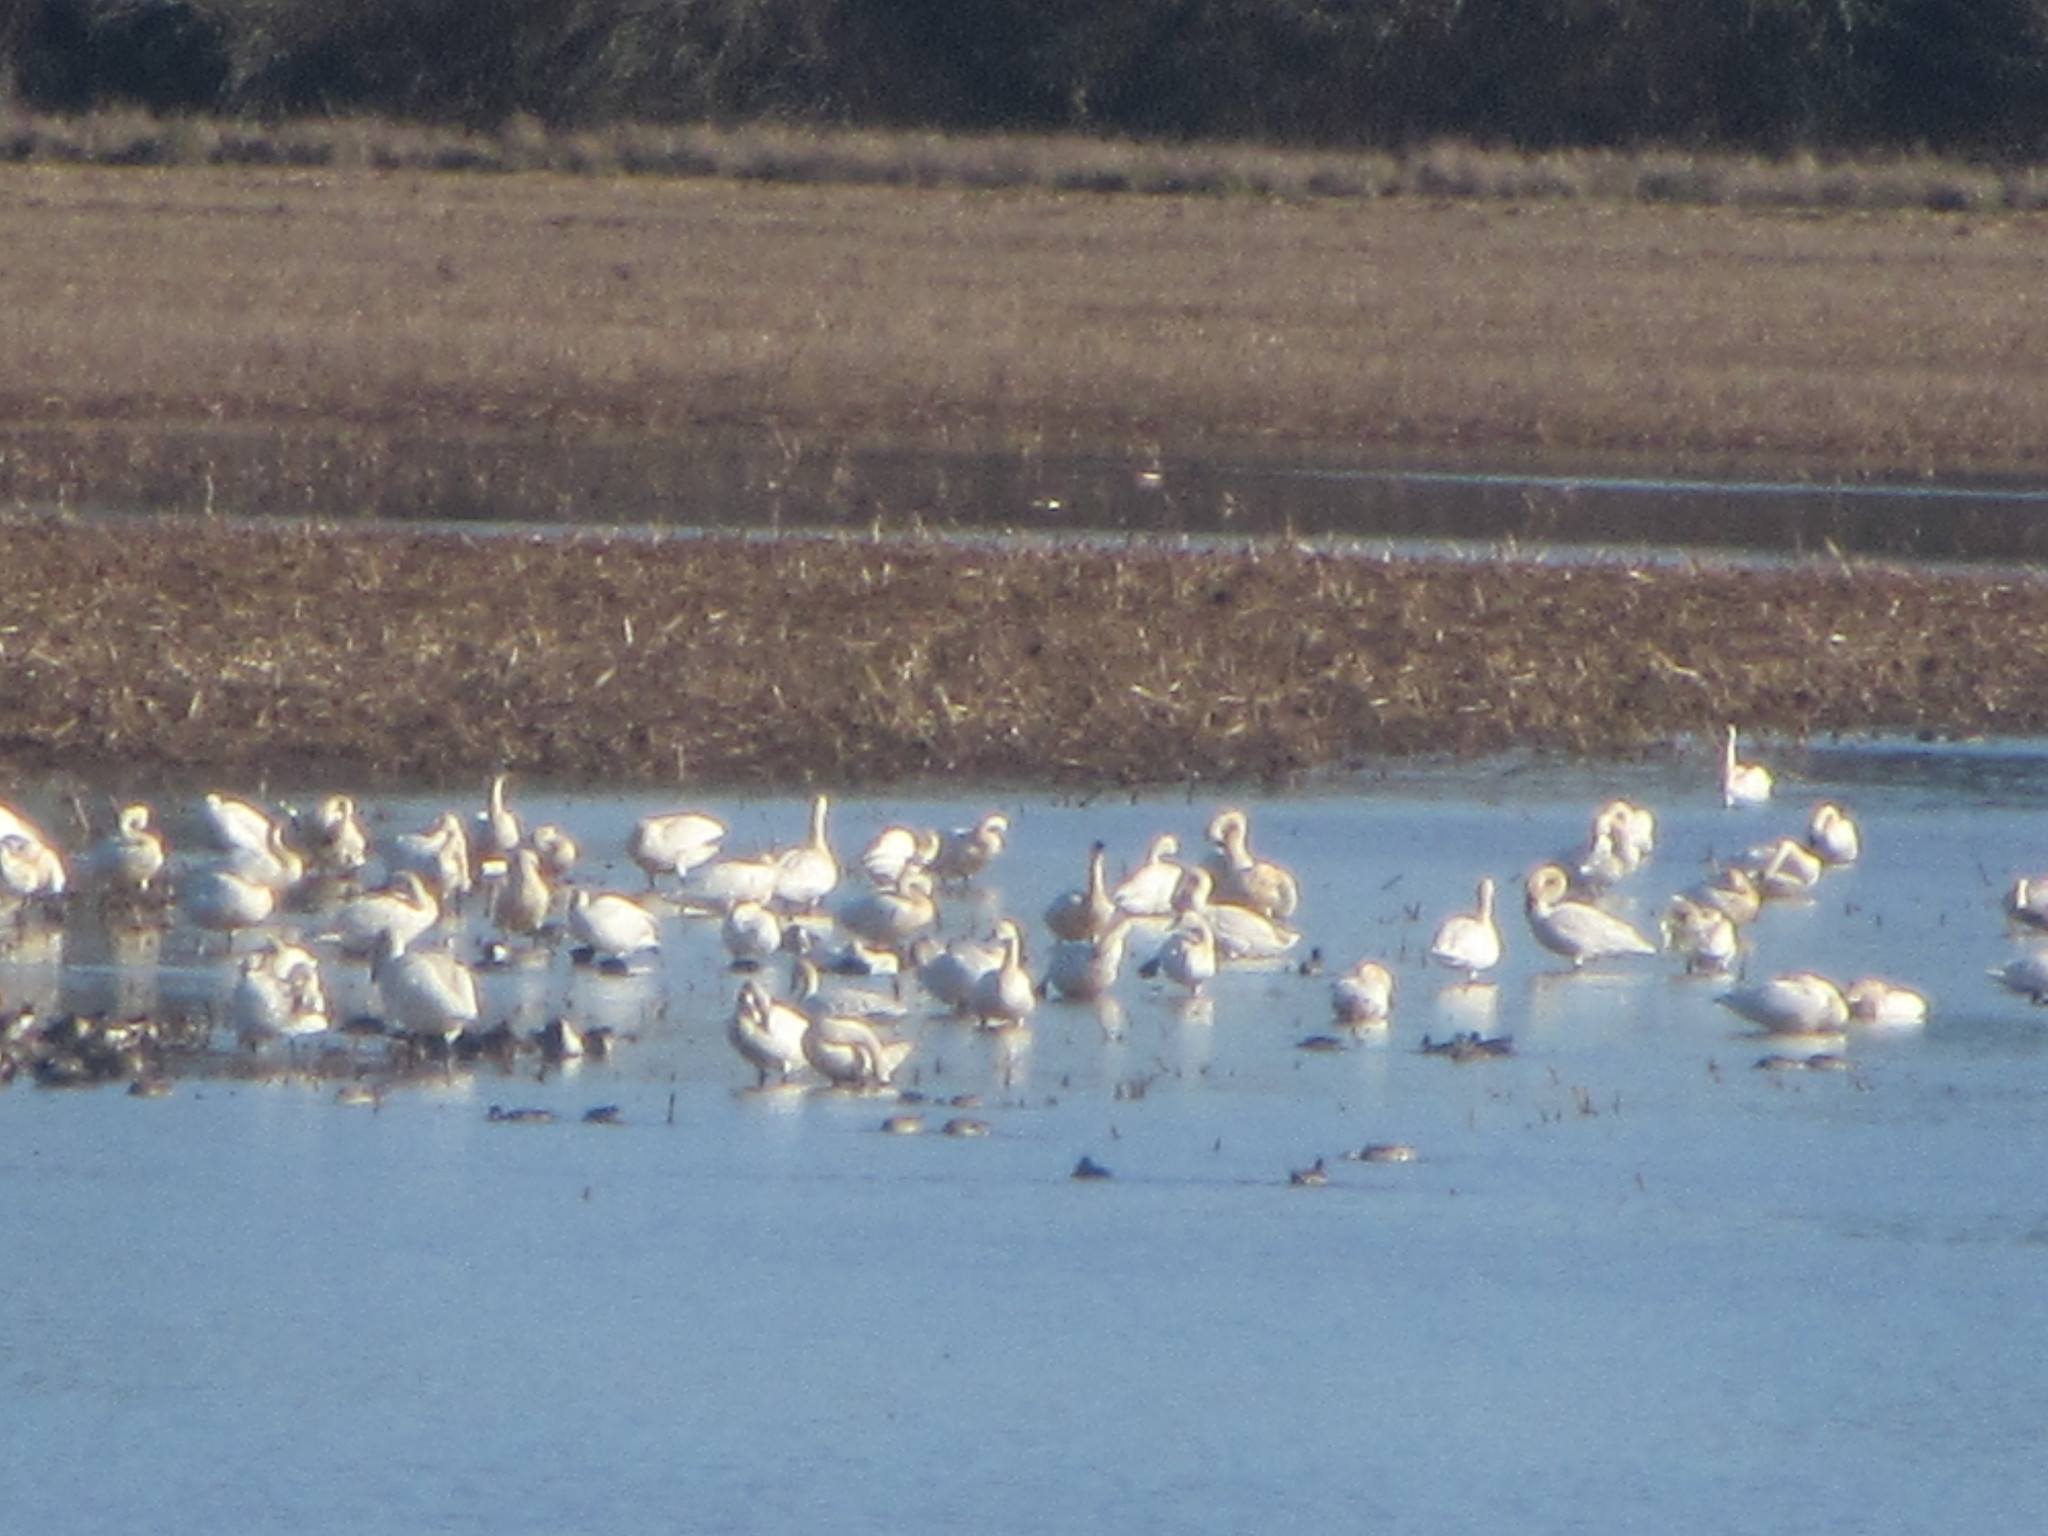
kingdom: Animalia
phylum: Chordata
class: Aves
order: Anseriformes
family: Anatidae
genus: Cygnus
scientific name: Cygnus columbianus
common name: Tundra swan
